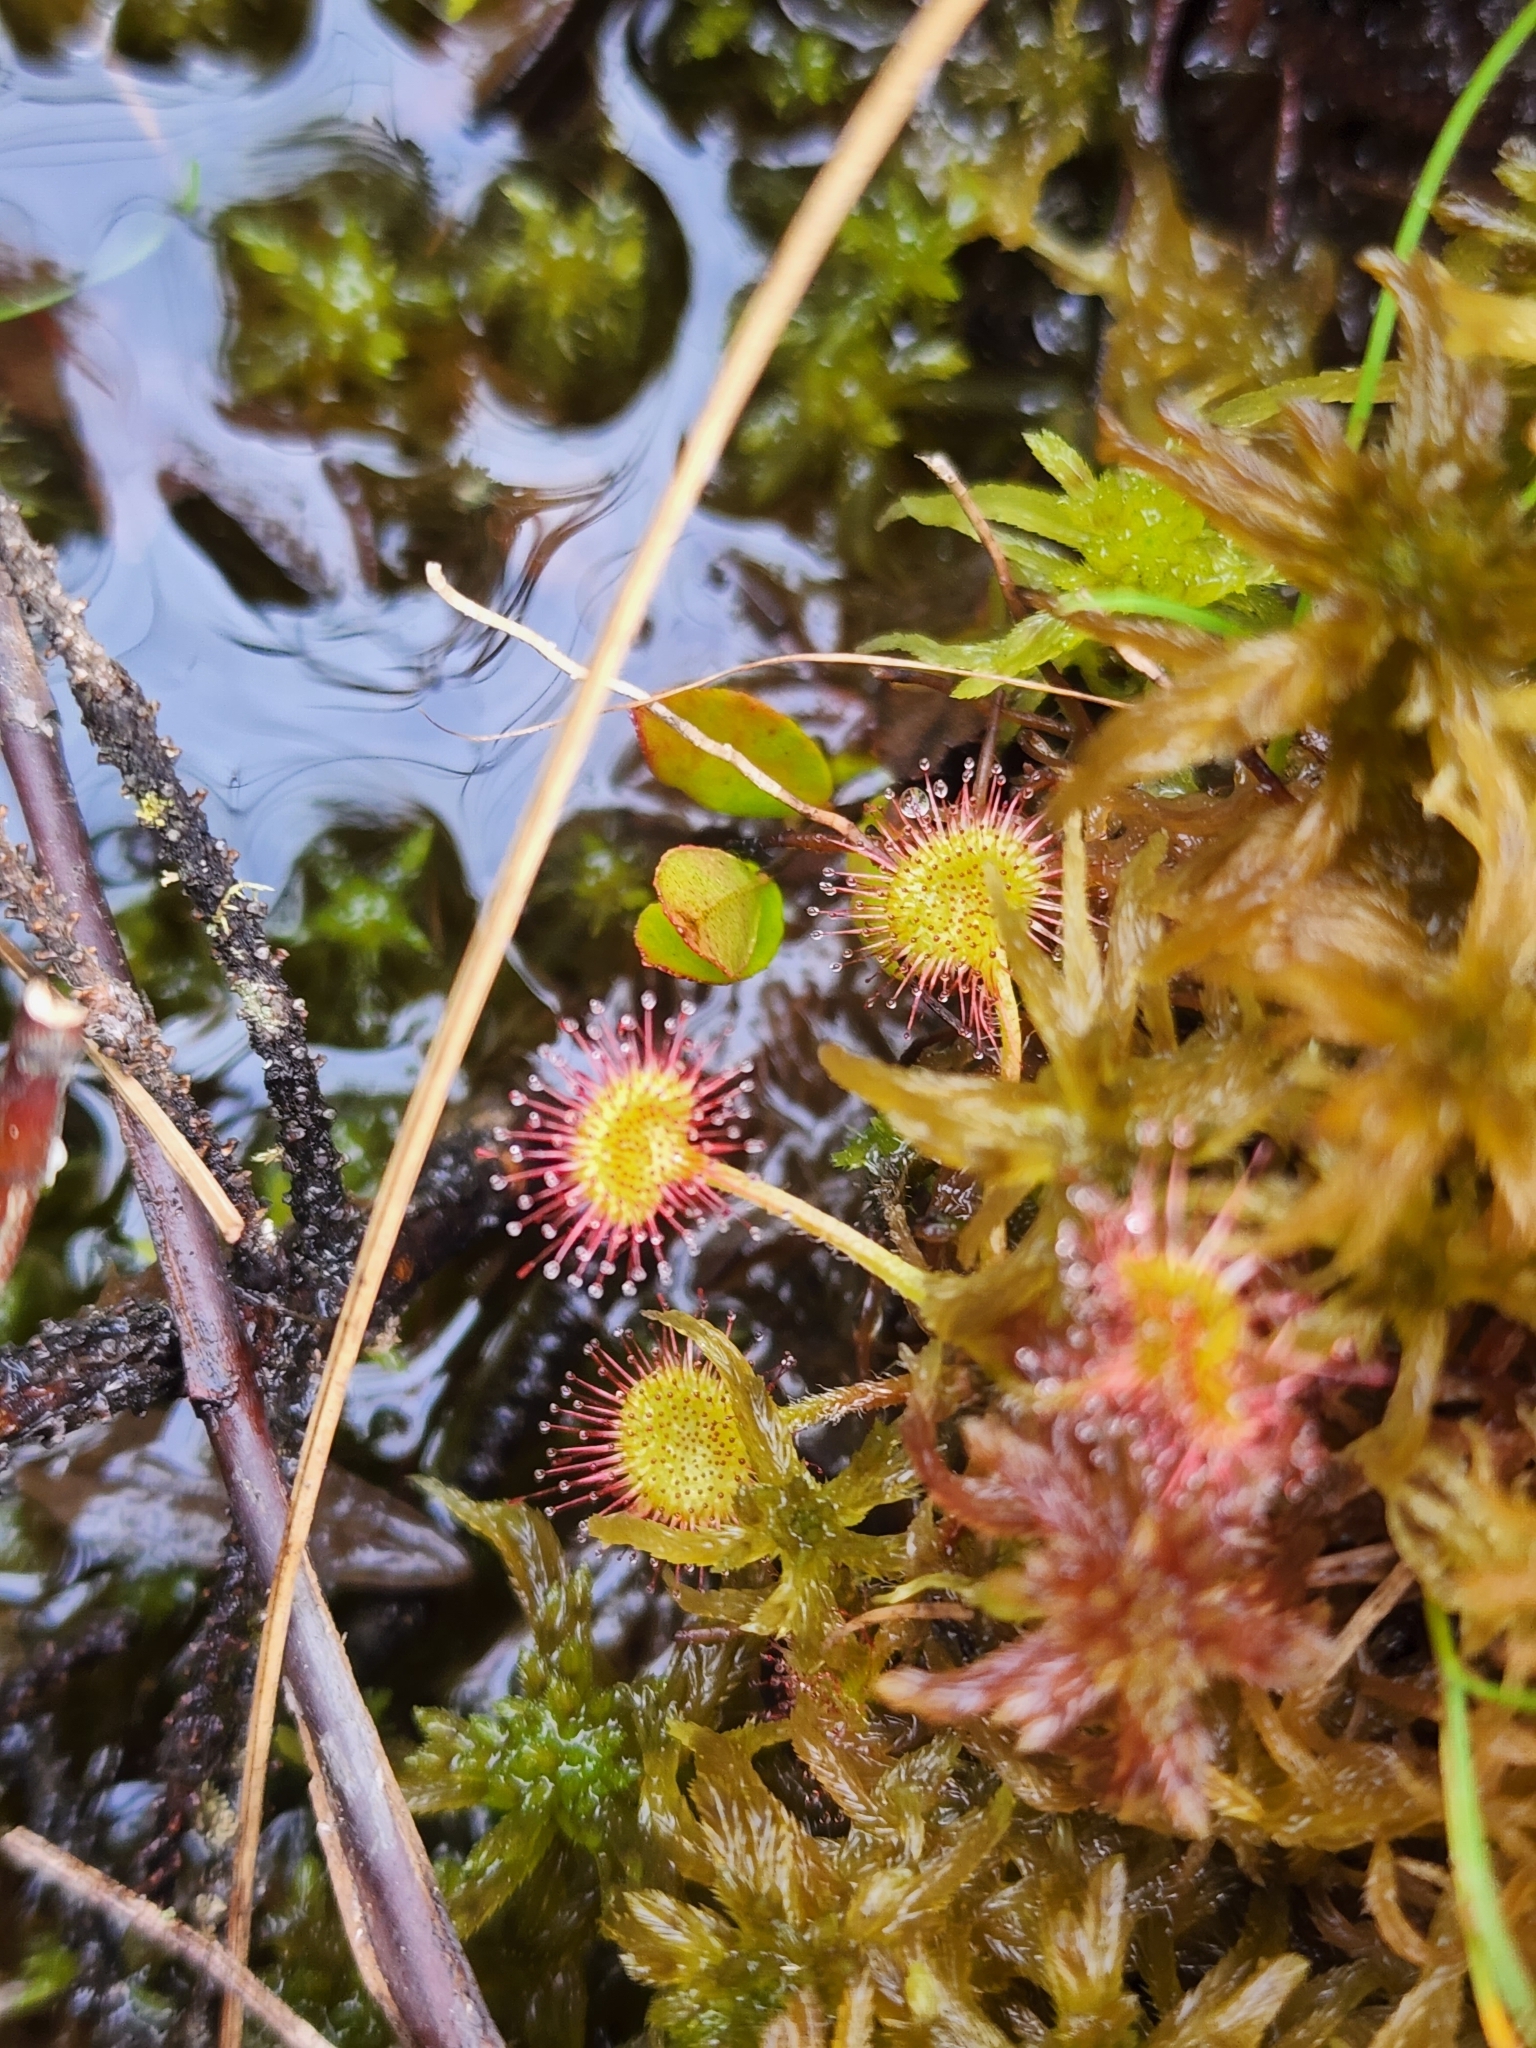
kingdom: Plantae
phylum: Tracheophyta
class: Magnoliopsida
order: Caryophyllales
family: Droseraceae
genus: Drosera
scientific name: Drosera rotundifolia
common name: Round-leaved sundew
